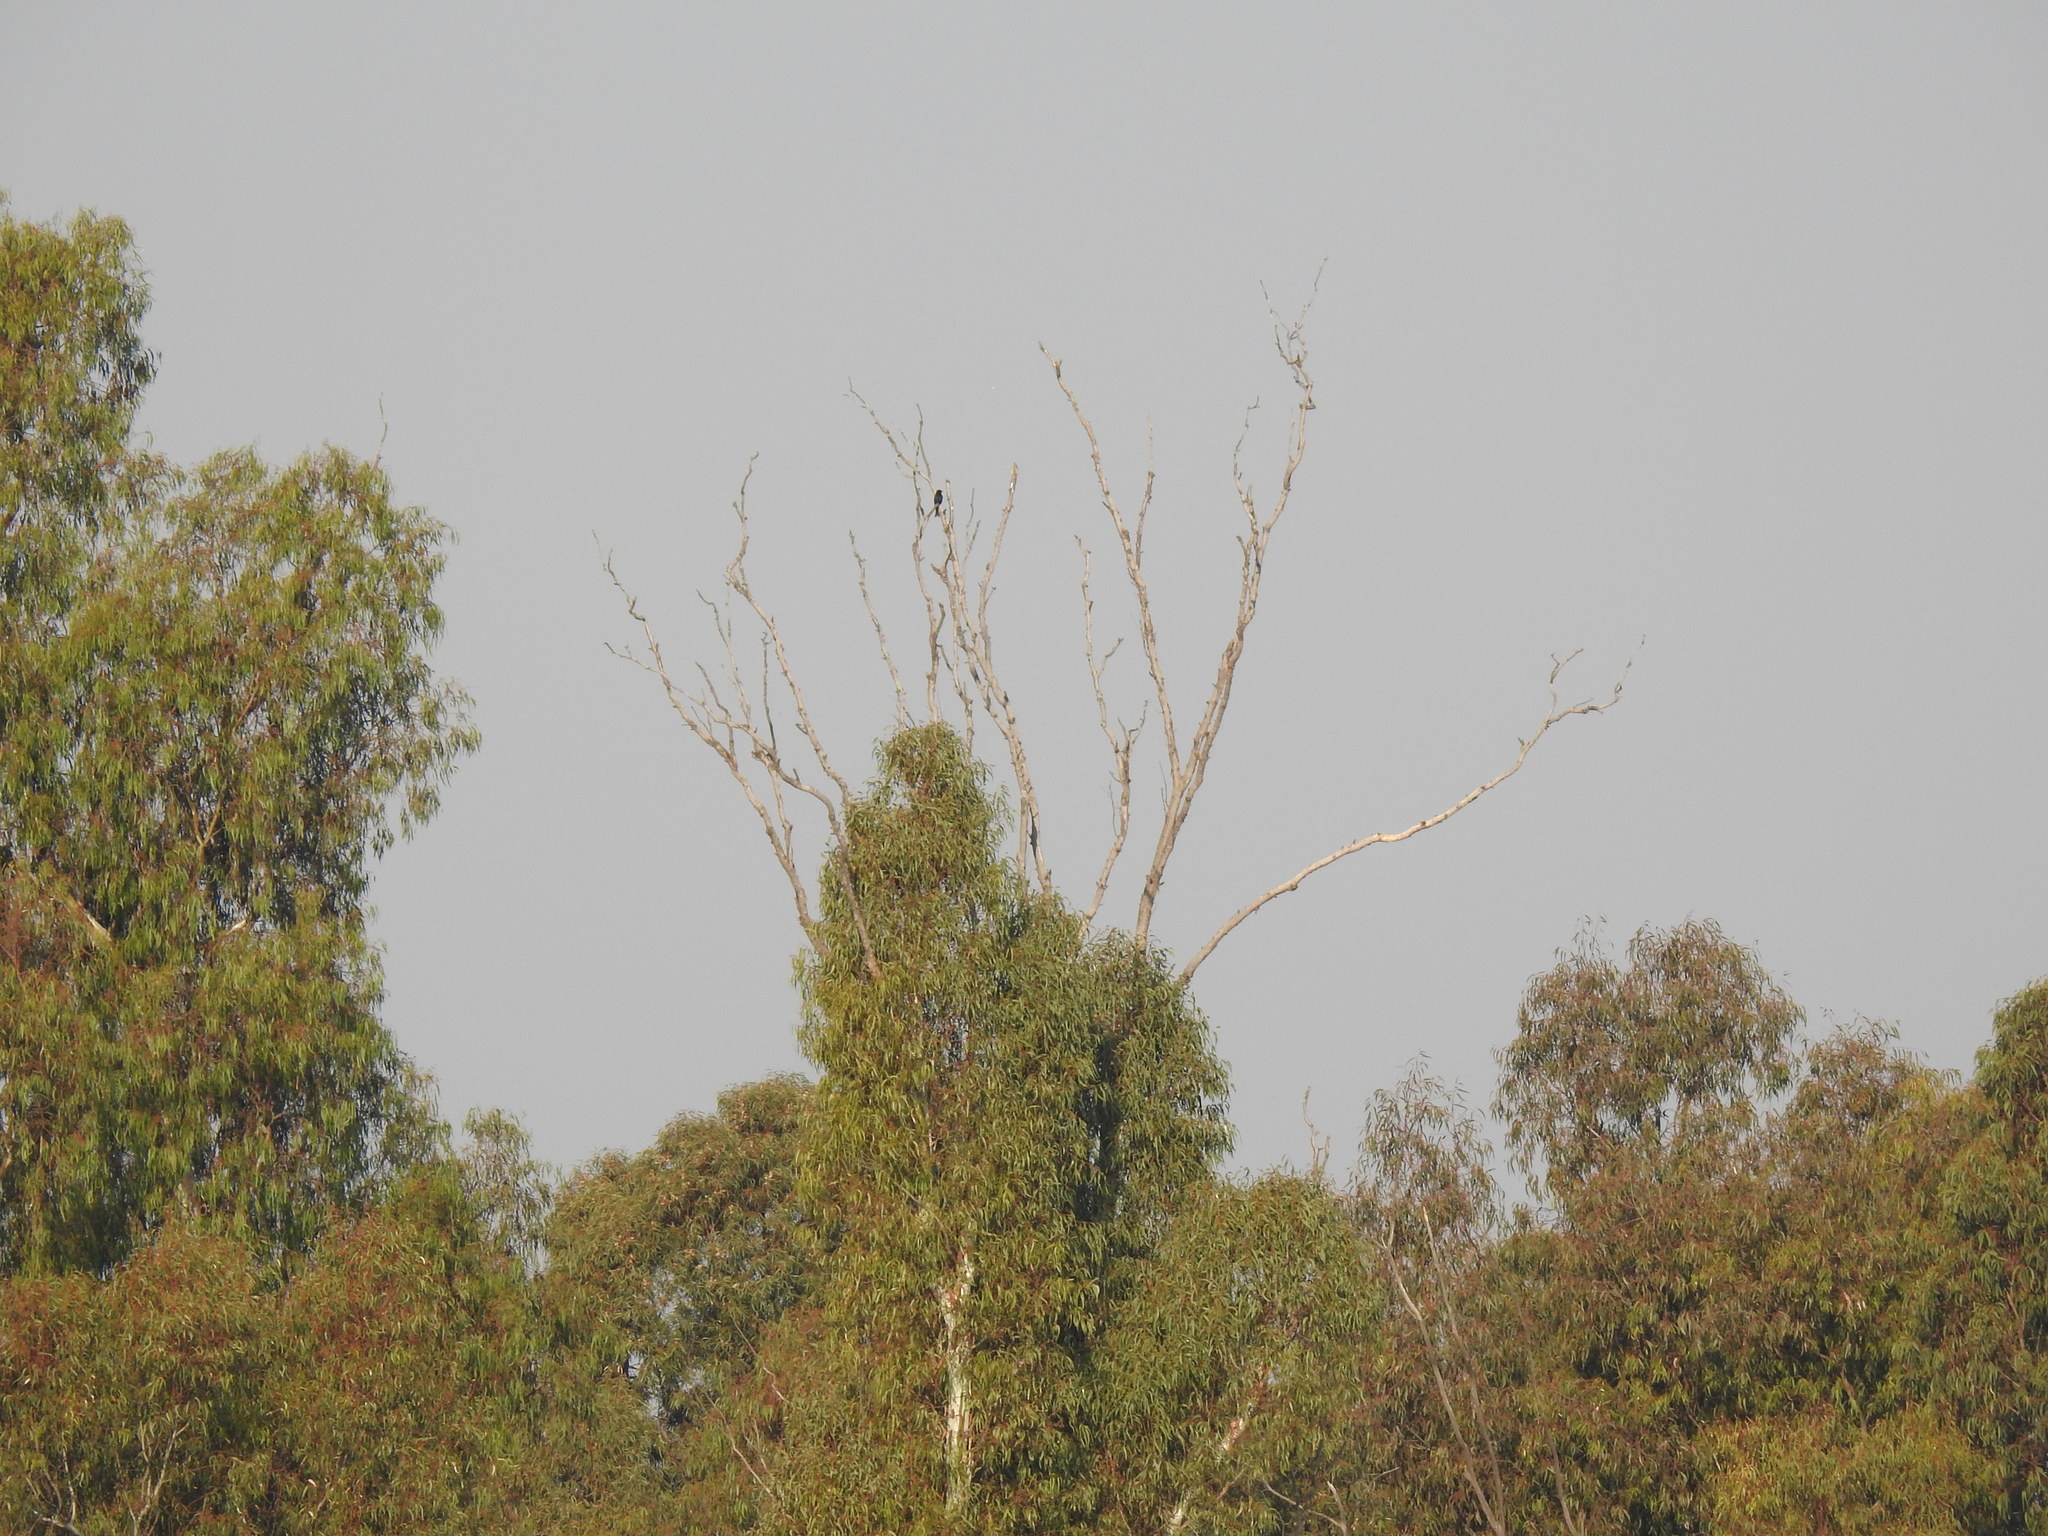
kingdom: Animalia
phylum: Chordata
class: Aves
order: Passeriformes
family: Dicruridae
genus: Dicrurus
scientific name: Dicrurus adsimilis
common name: Fork-tailed drongo
